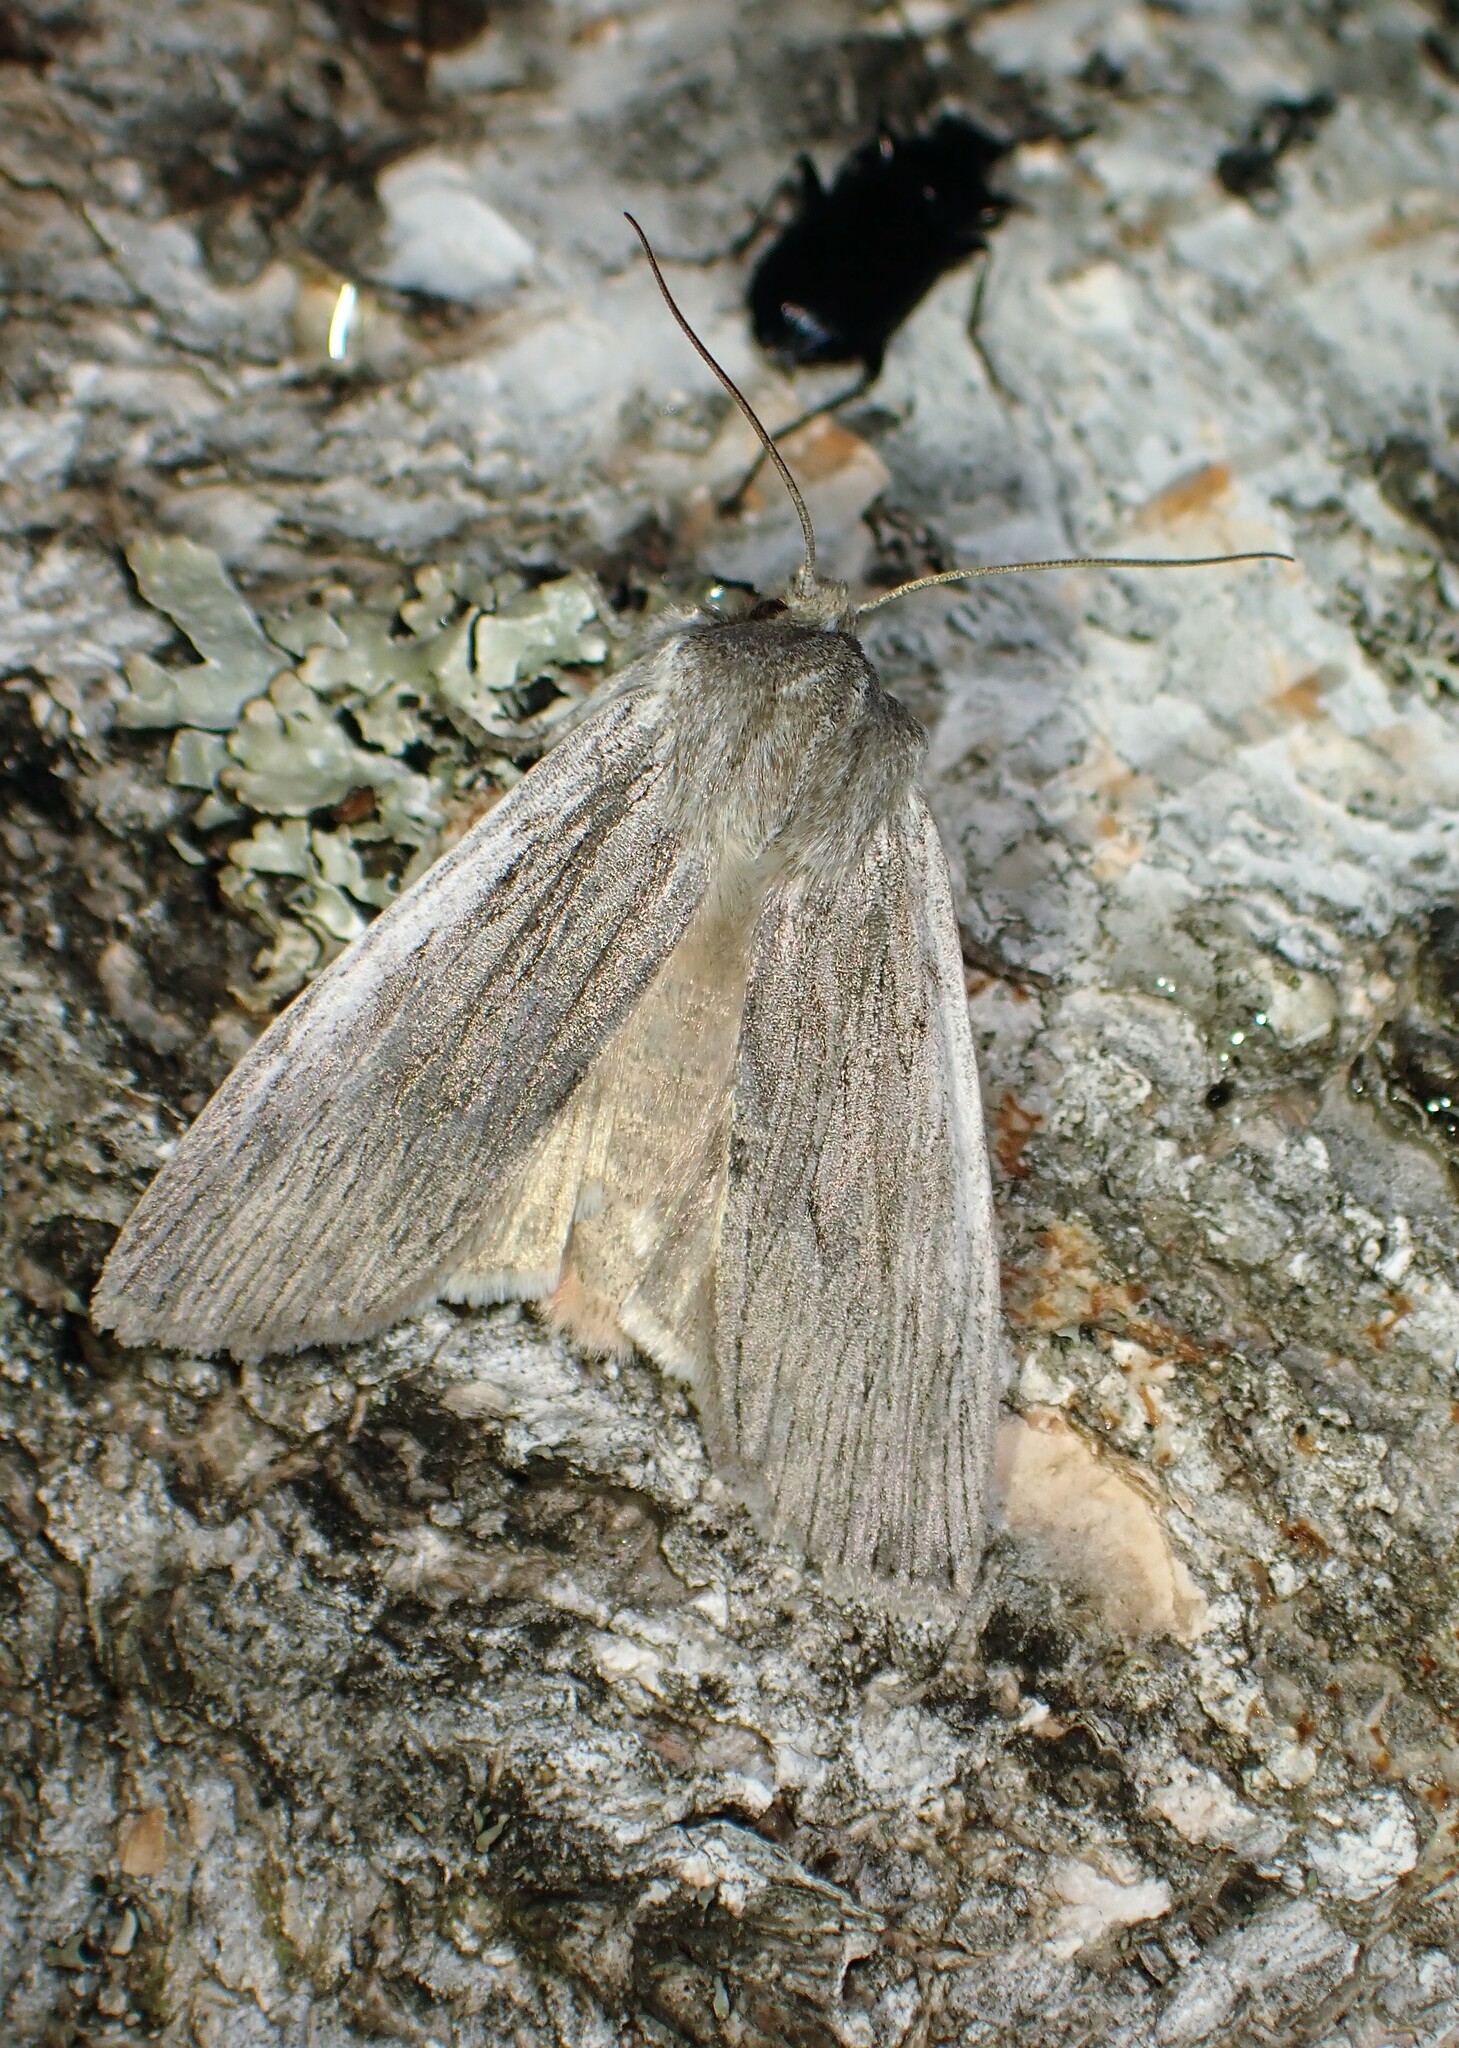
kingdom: Animalia
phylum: Arthropoda
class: Insecta
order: Lepidoptera
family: Noctuidae
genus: Lithophane
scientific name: Lithophane fagina
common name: Hoary pinion moth
